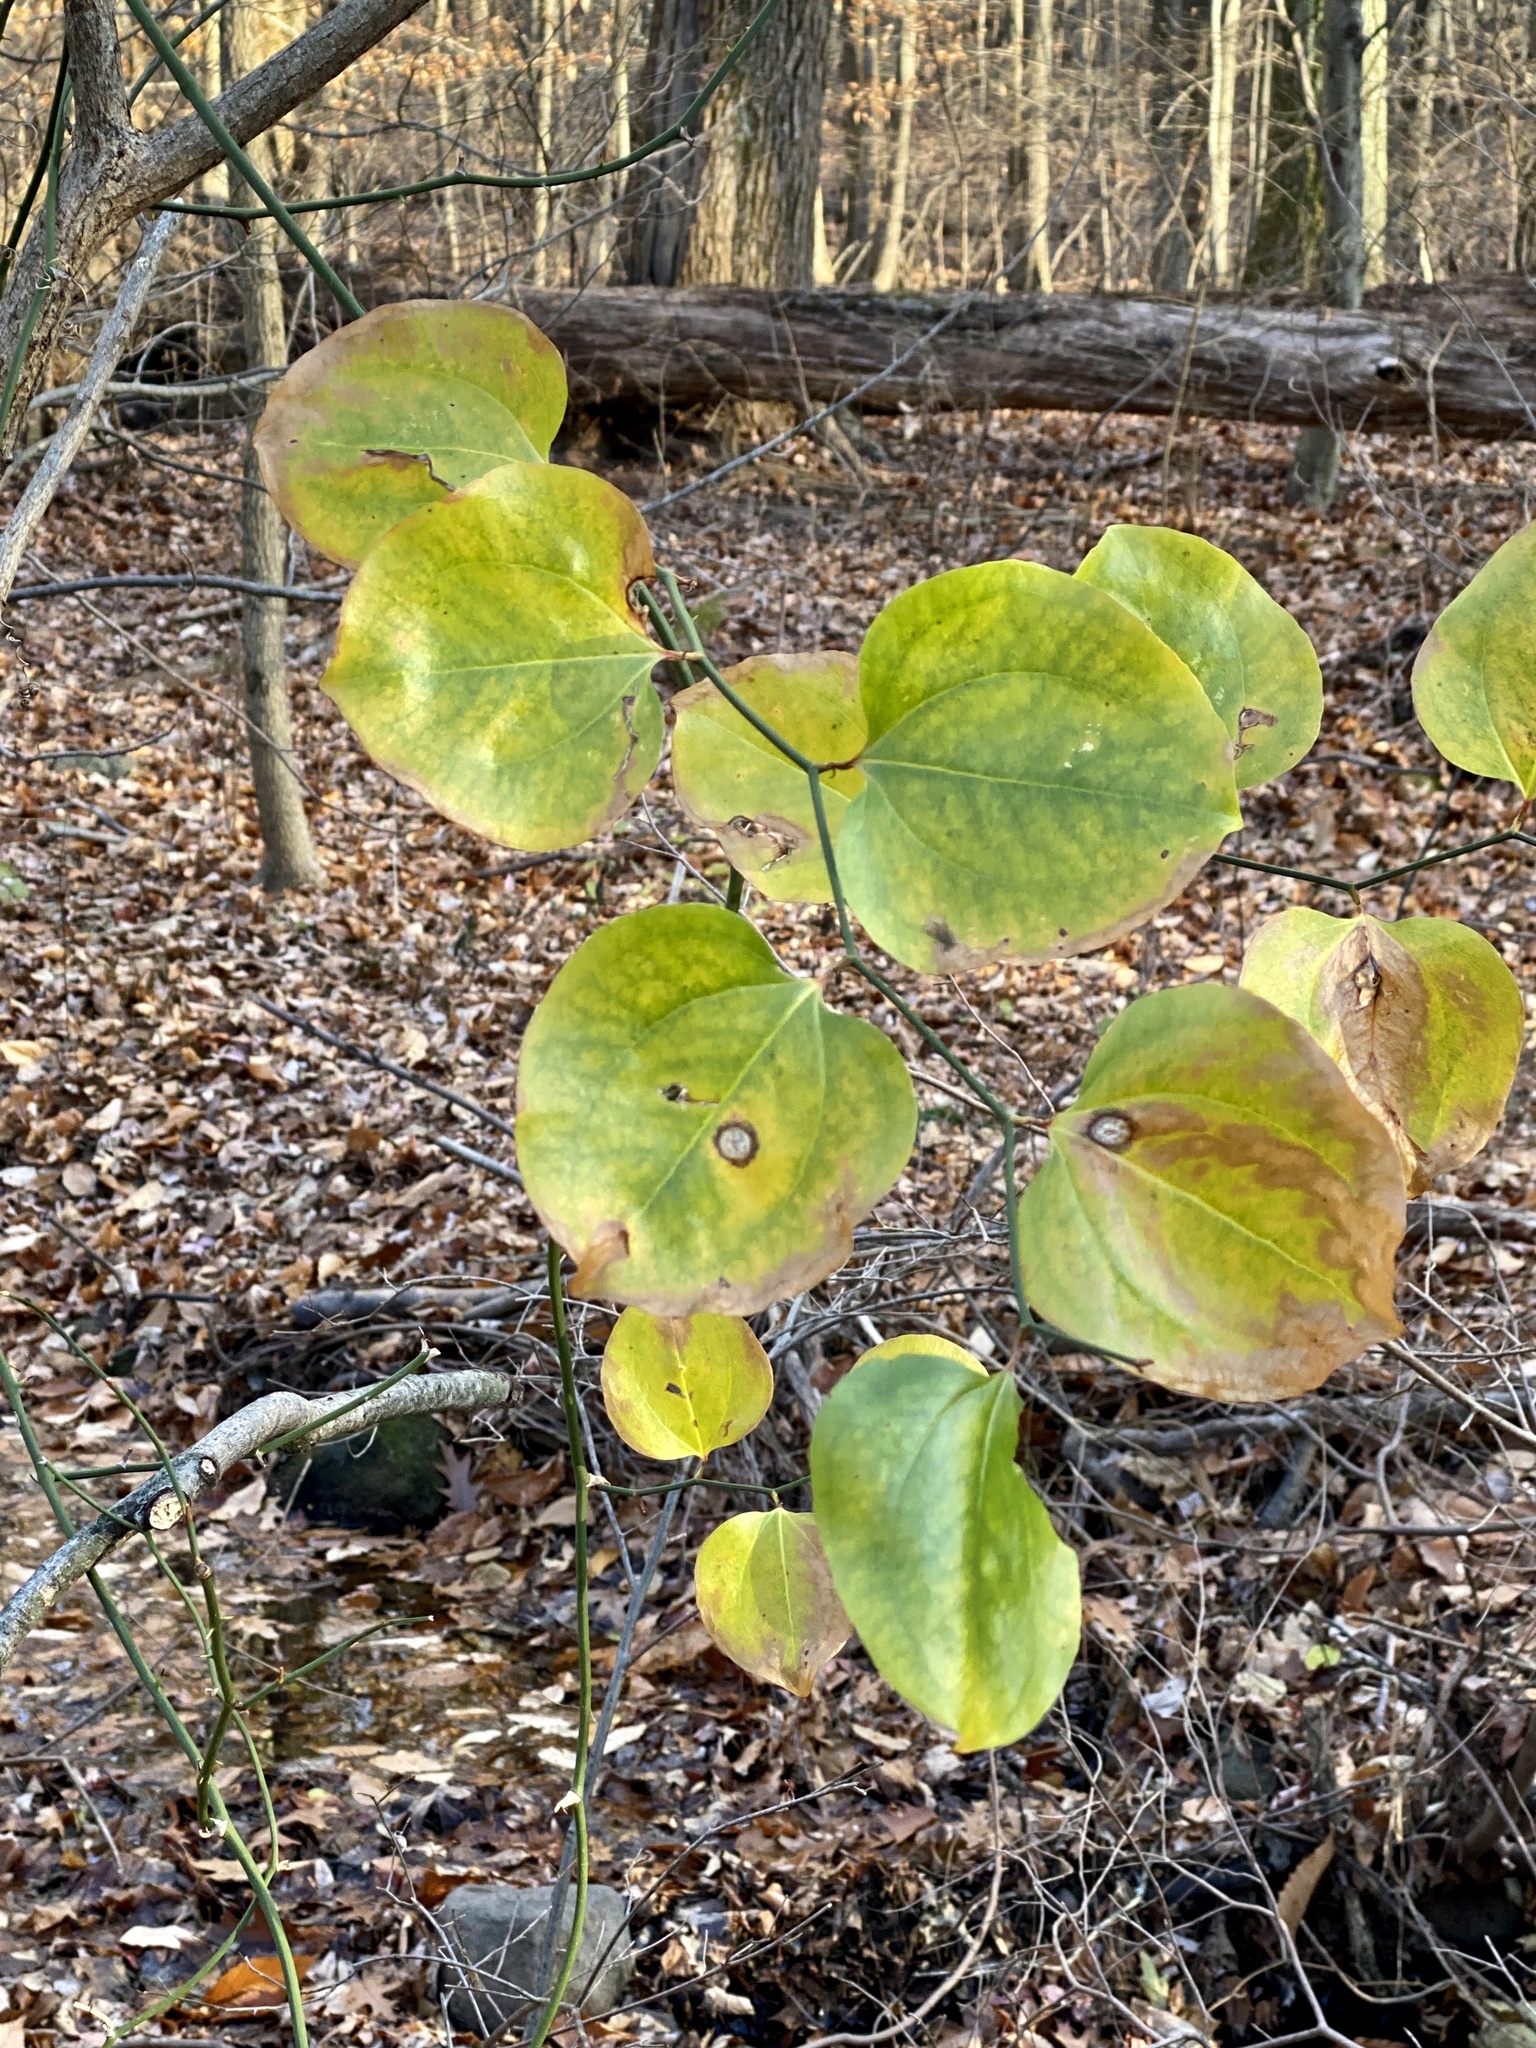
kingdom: Plantae
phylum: Tracheophyta
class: Liliopsida
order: Liliales
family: Smilacaceae
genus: Smilax
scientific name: Smilax rotundifolia
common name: Bullbriar
